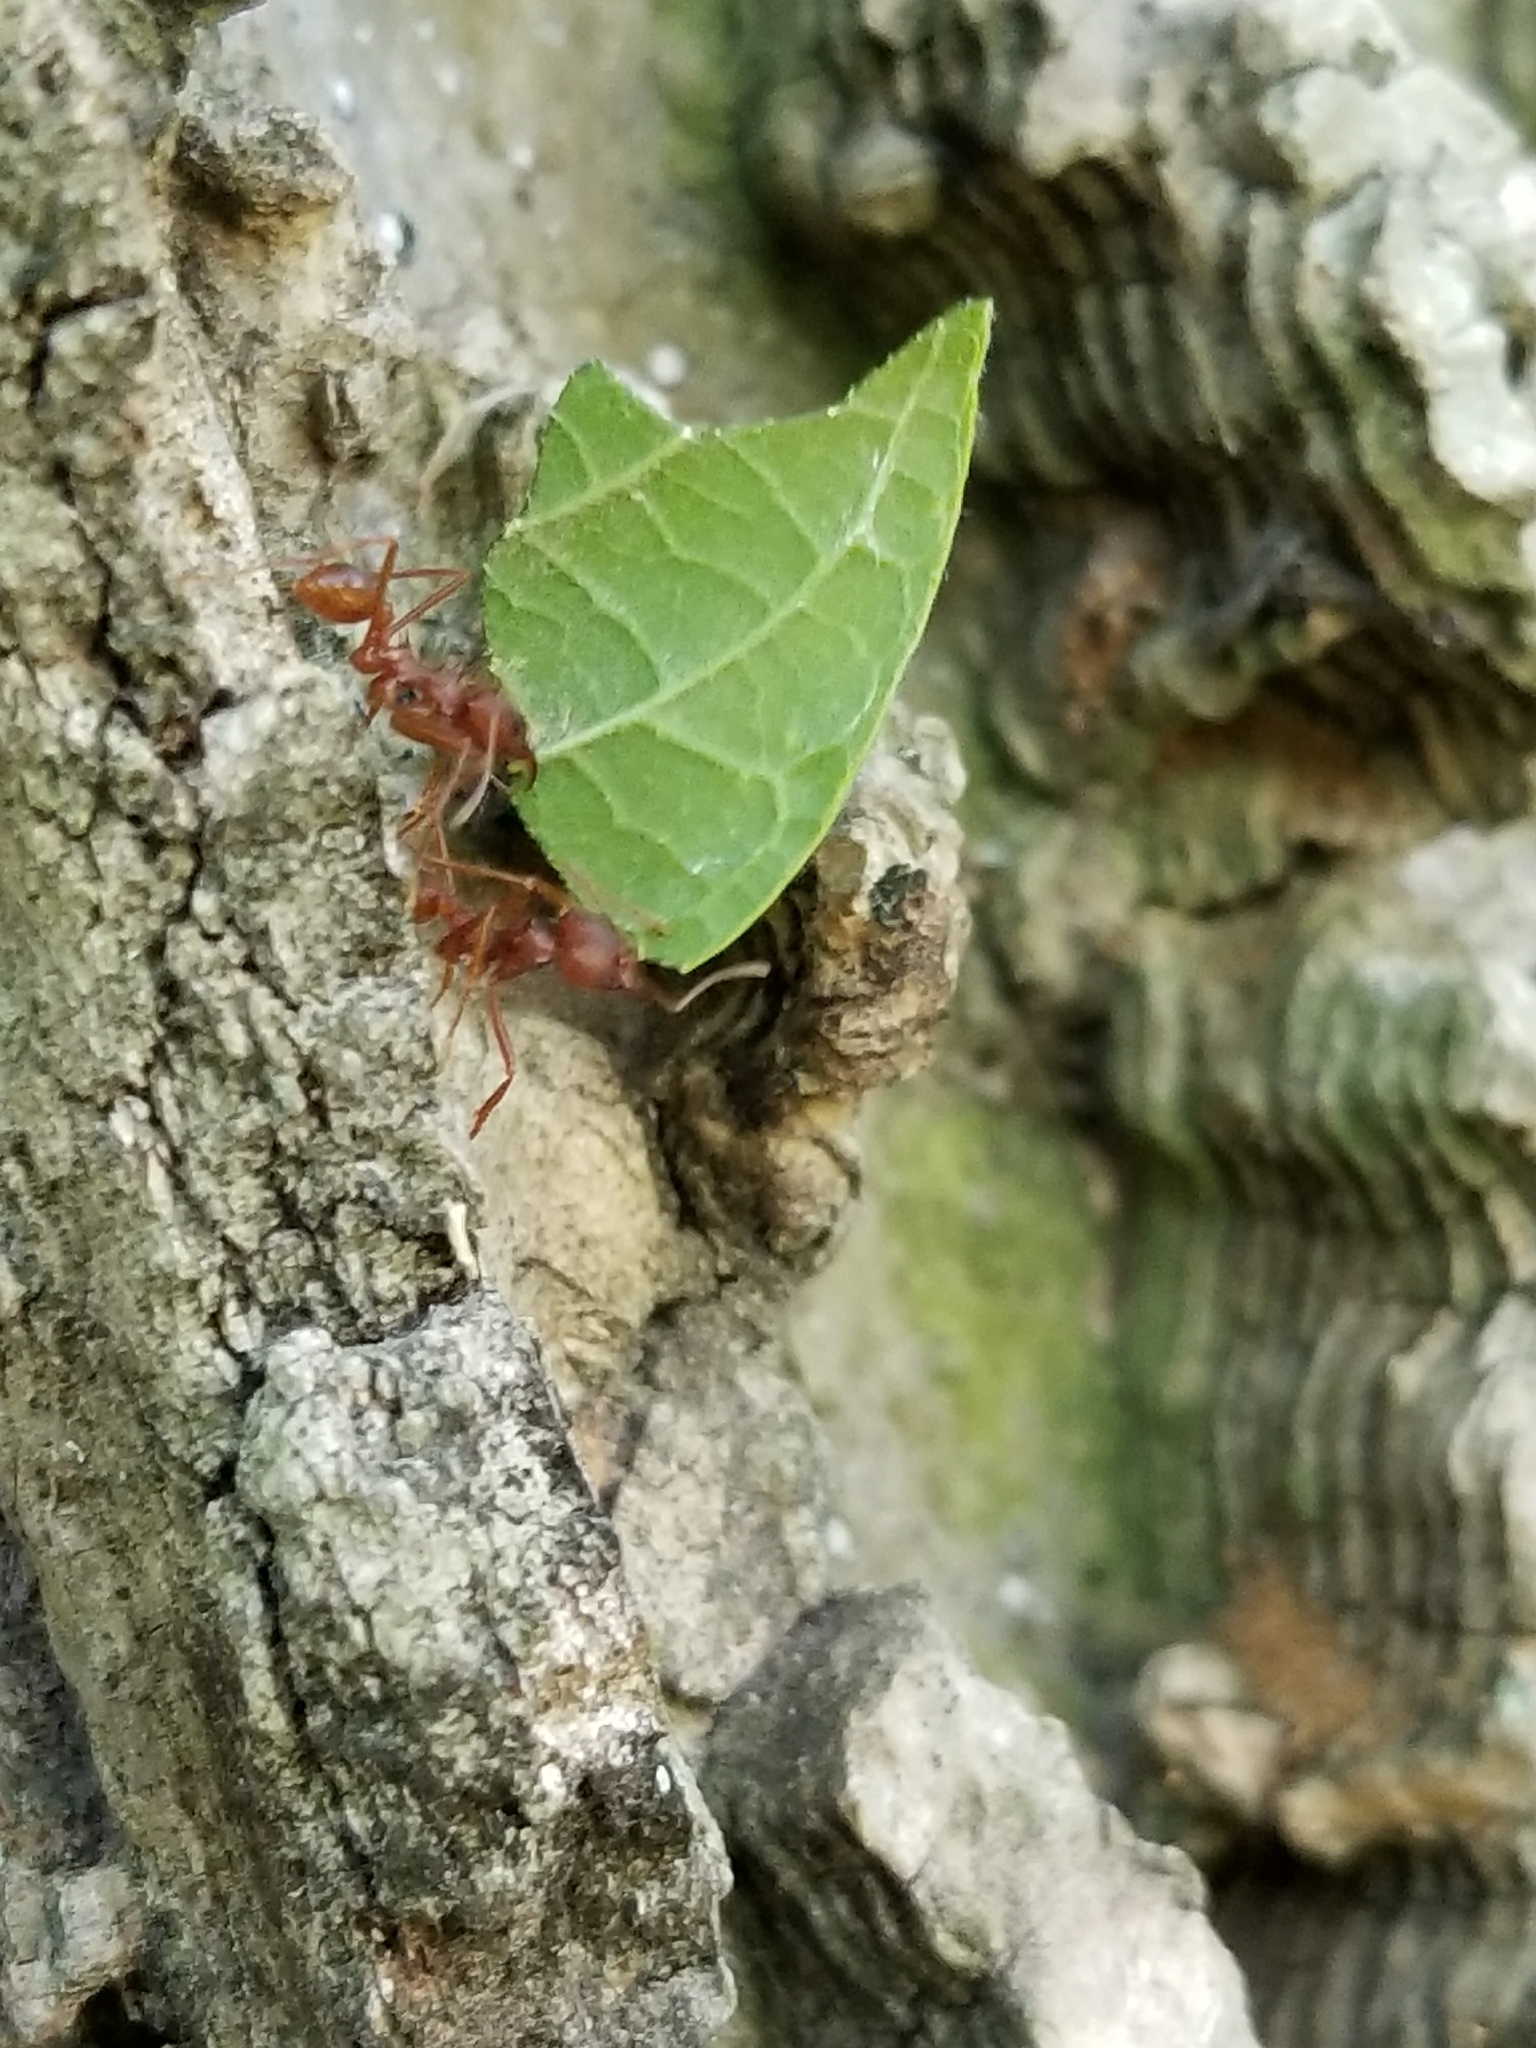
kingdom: Animalia
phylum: Arthropoda
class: Insecta
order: Hymenoptera
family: Formicidae
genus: Atta
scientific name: Atta texana
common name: Texas leafcutting ant
